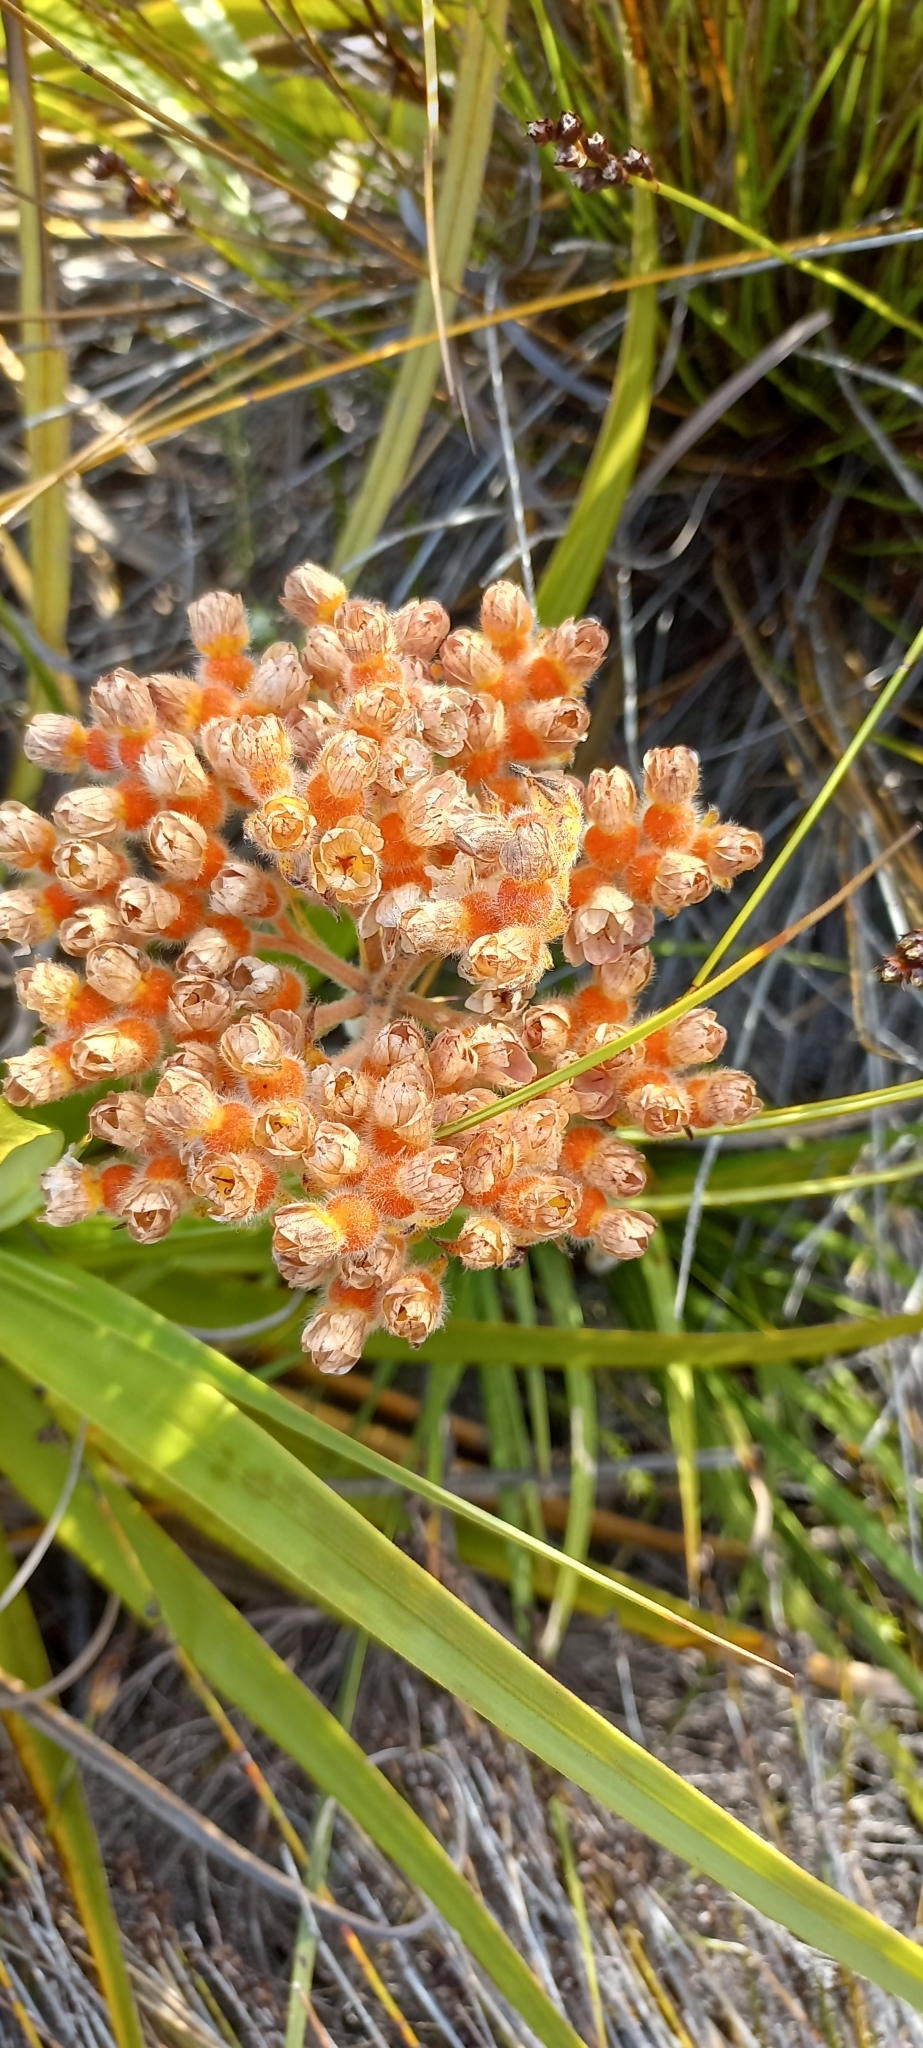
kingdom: Plantae
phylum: Tracheophyta
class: Liliopsida
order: Commelinales
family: Haemodoraceae
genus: Dilatris
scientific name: Dilatris pillansii
